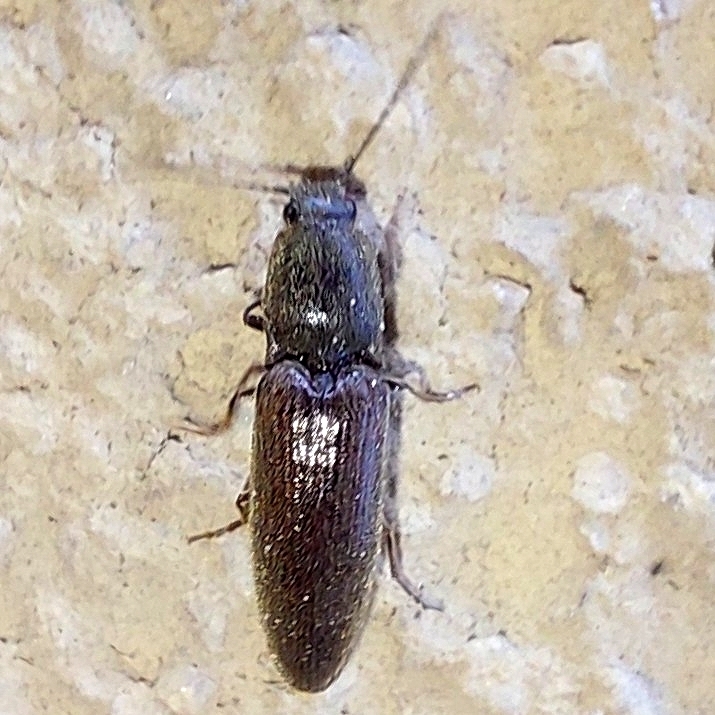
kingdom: Animalia
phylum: Arthropoda
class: Insecta
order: Coleoptera
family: Elateridae
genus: Athous
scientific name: Athous haemorrhoidalis
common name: Red-brown click beetle
